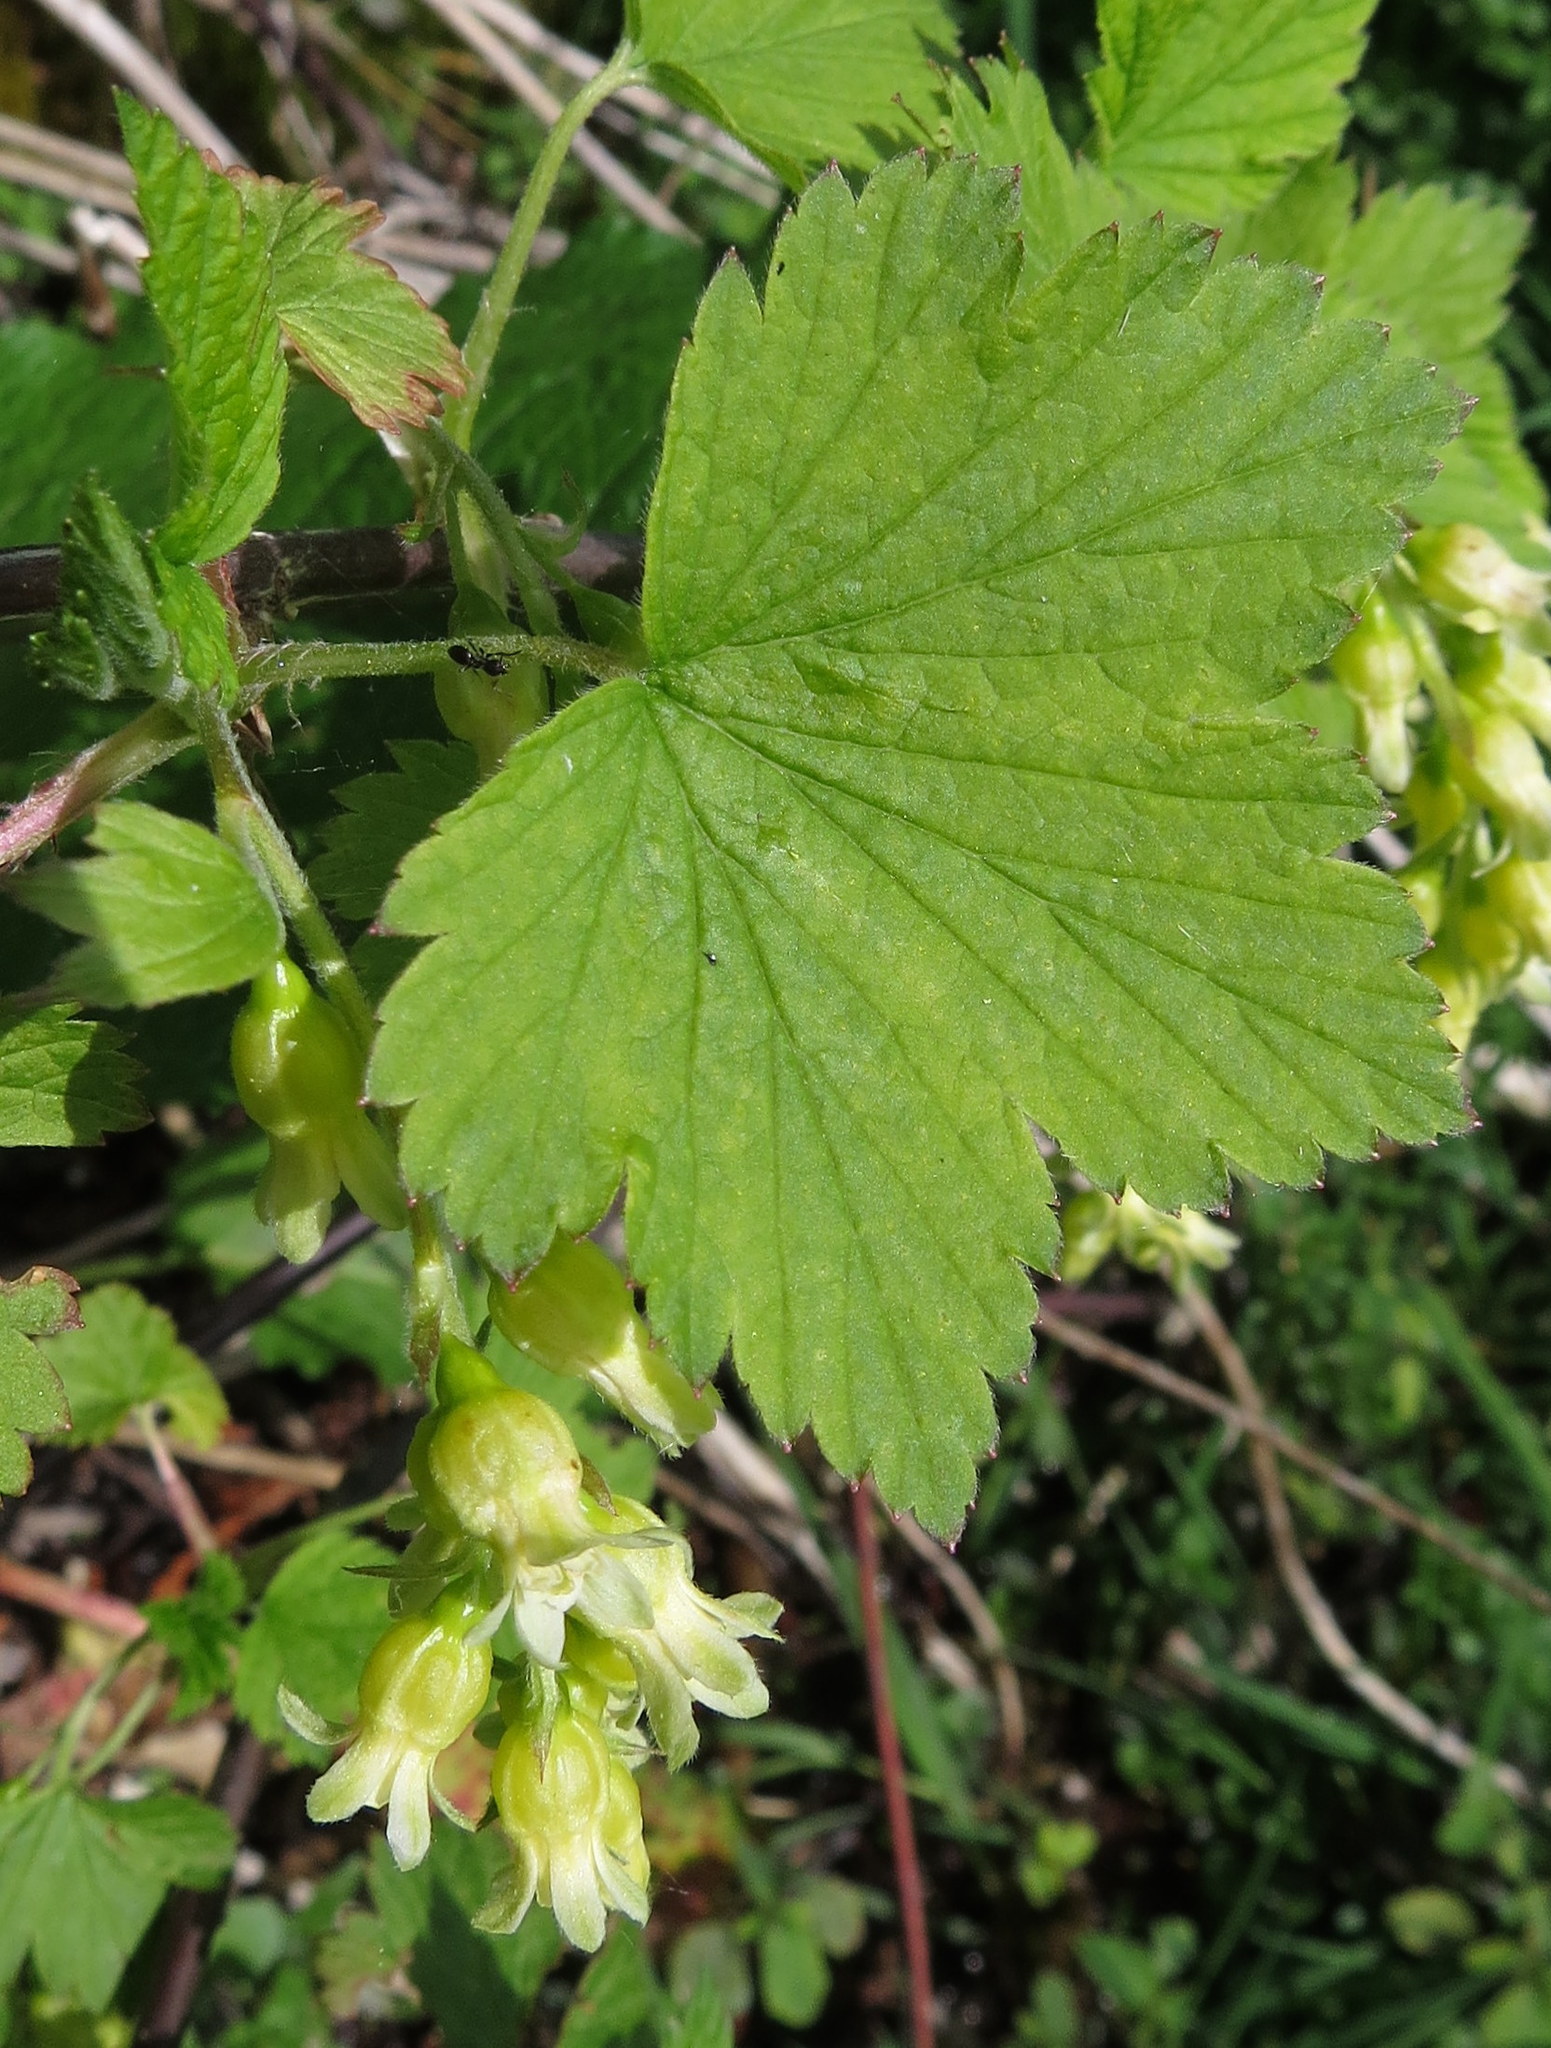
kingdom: Plantae
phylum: Tracheophyta
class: Magnoliopsida
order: Saxifragales
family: Grossulariaceae
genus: Ribes
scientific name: Ribes americanum
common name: American black currant
